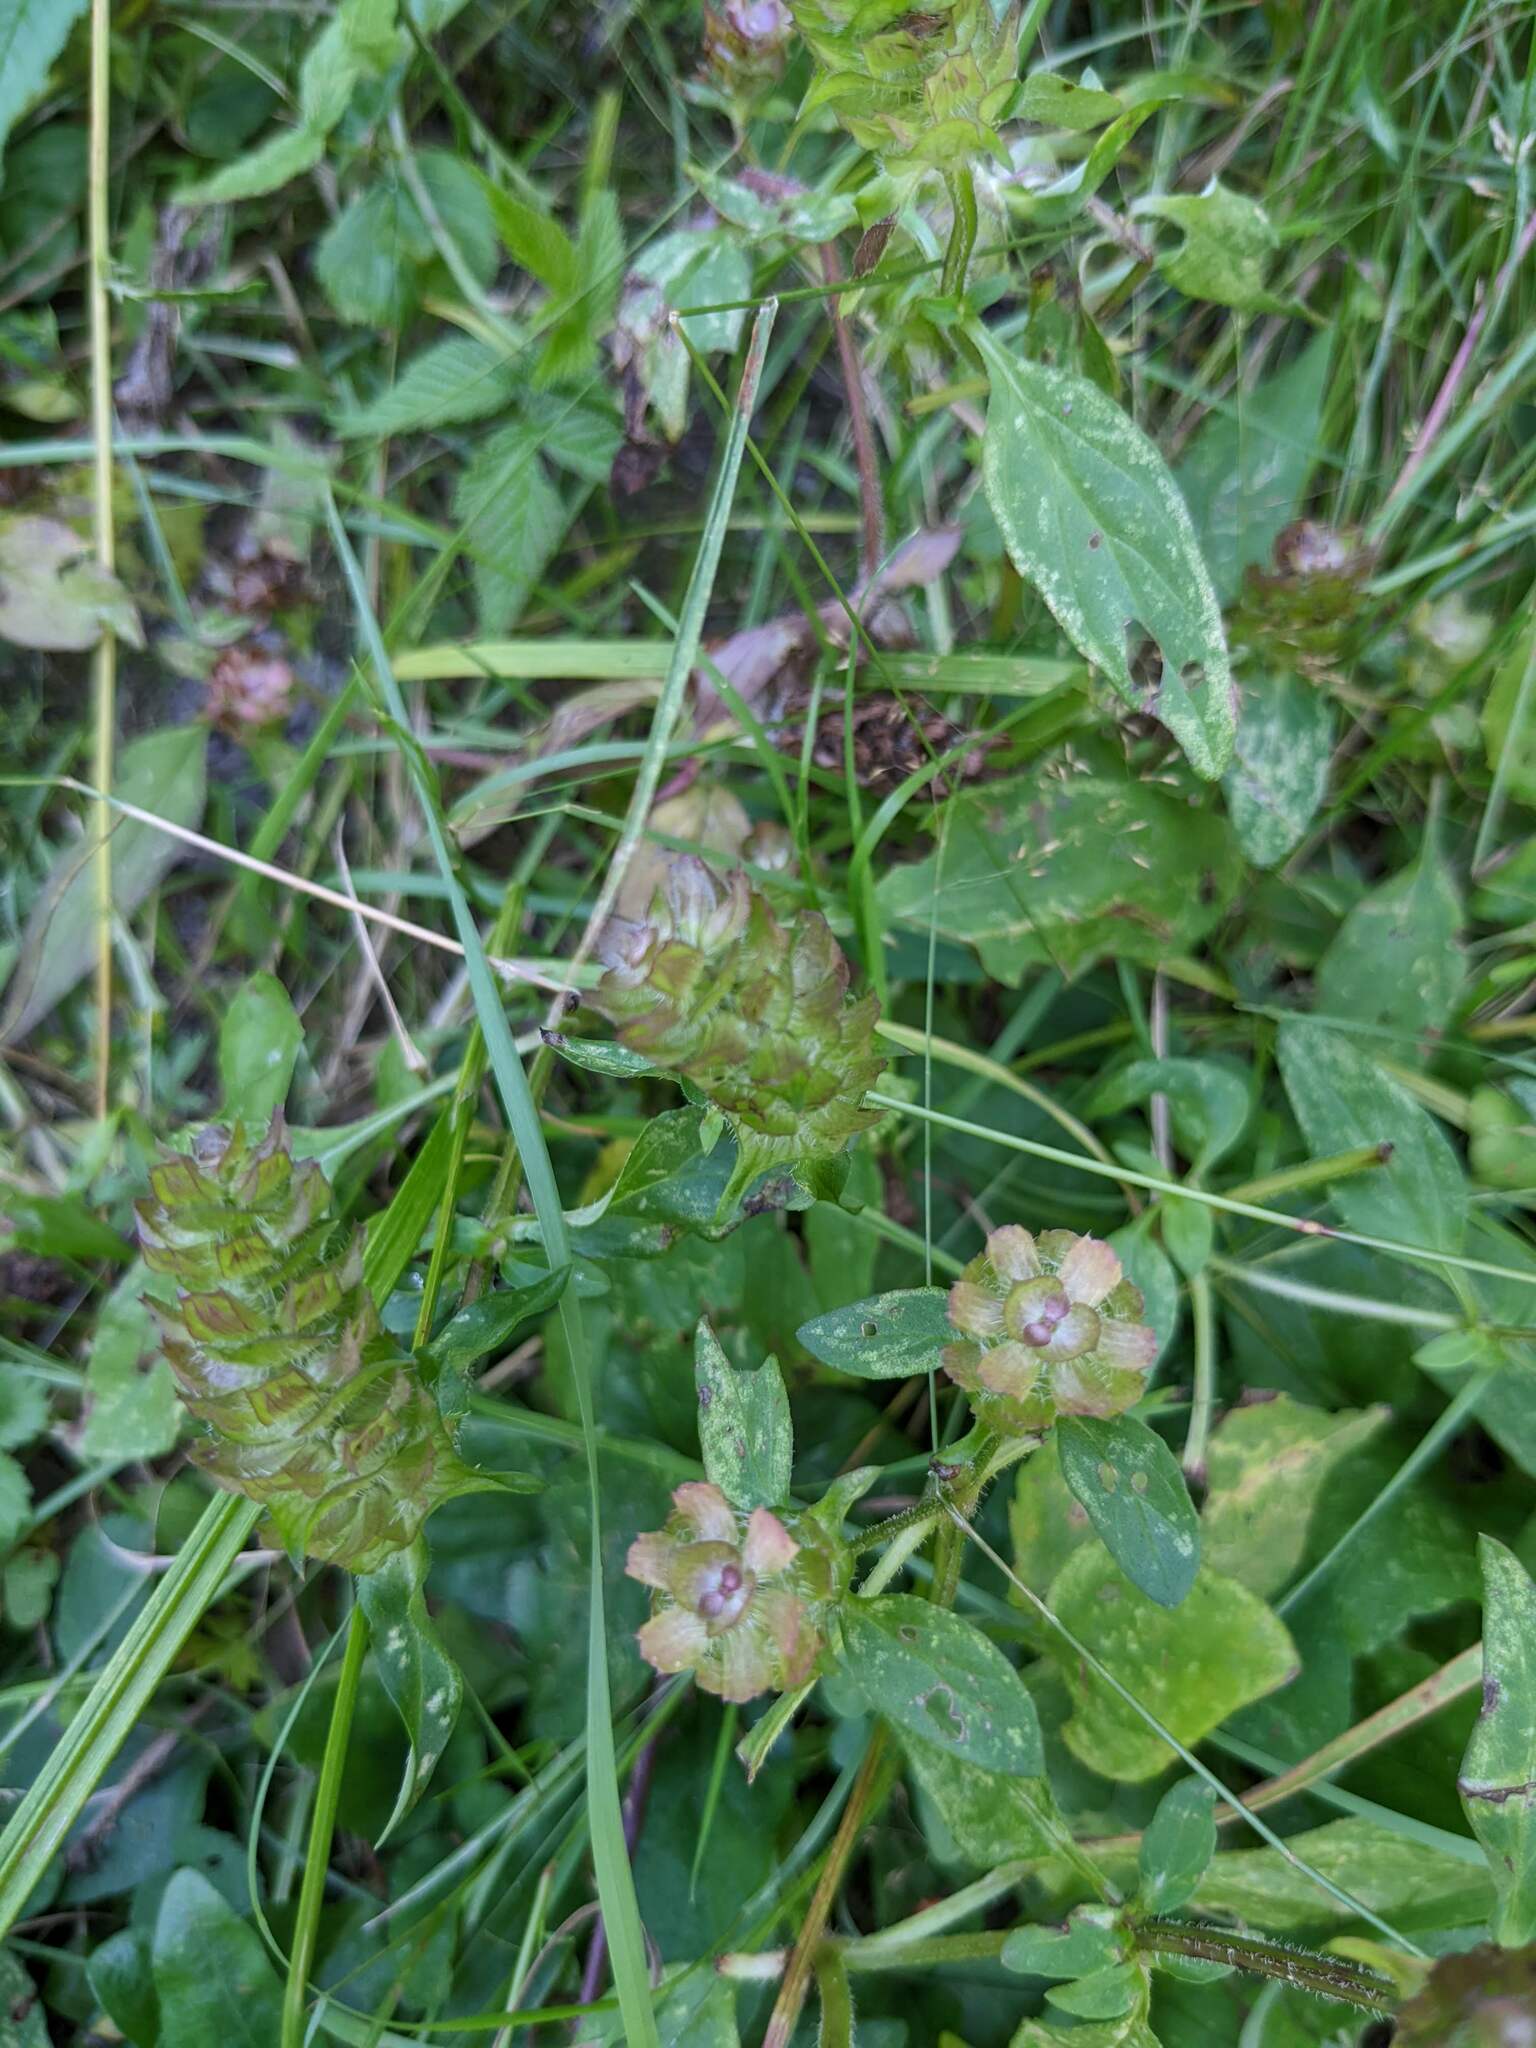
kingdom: Plantae
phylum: Tracheophyta
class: Magnoliopsida
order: Lamiales
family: Lamiaceae
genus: Prunella
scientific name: Prunella vulgaris
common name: Heal-all
